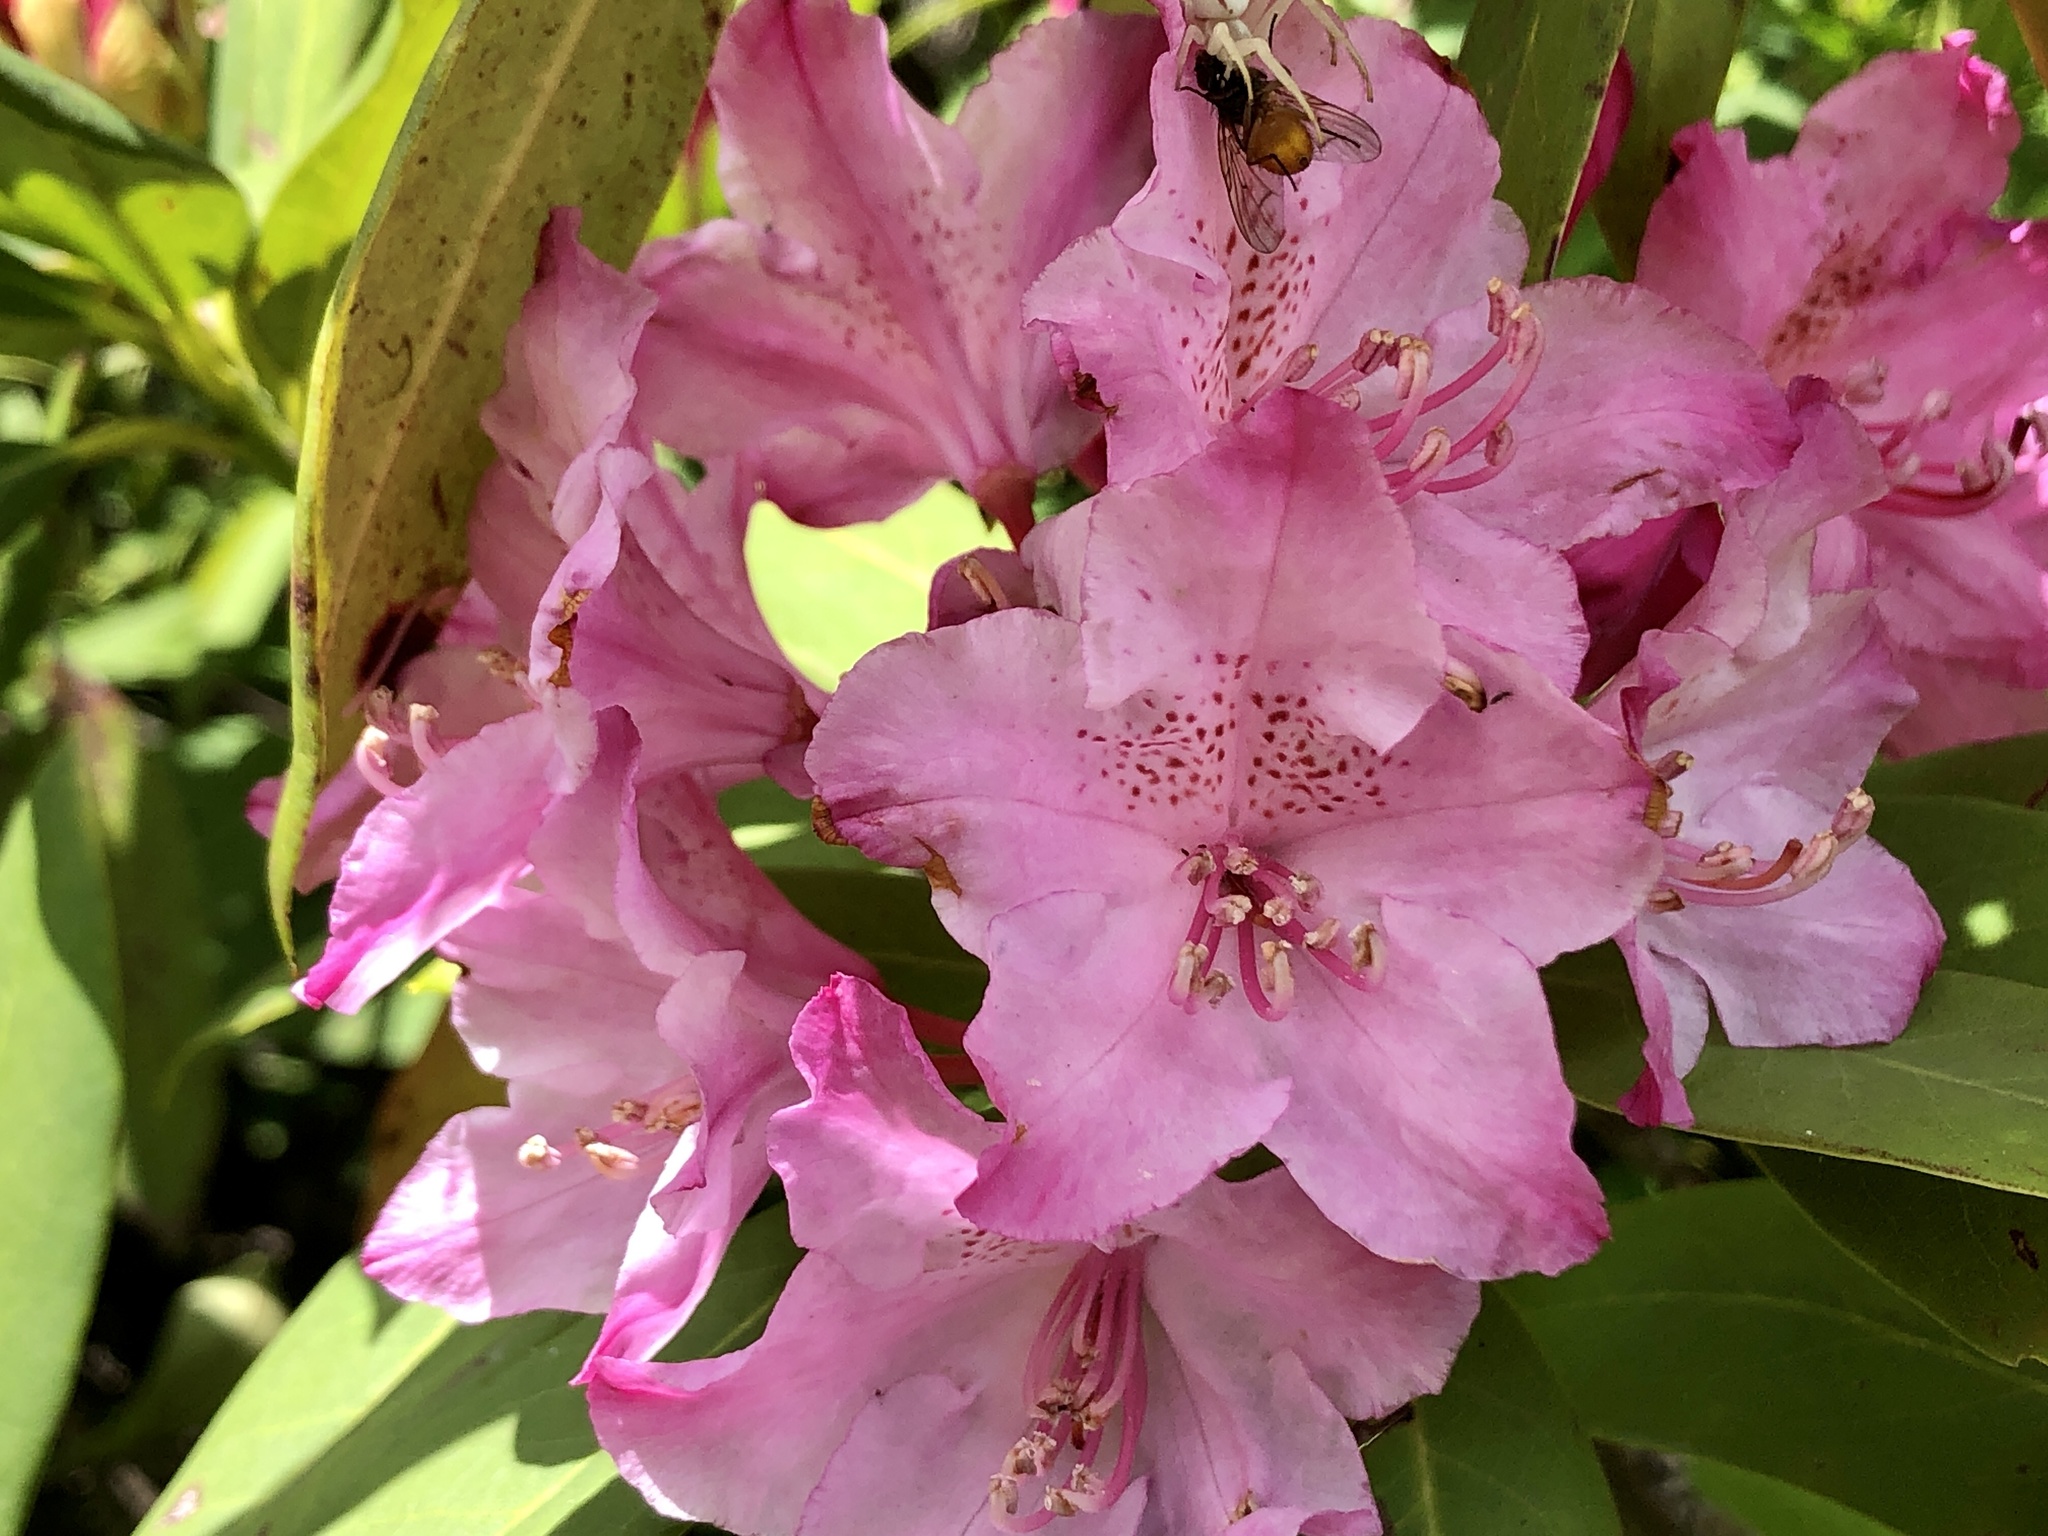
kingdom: Plantae
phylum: Tracheophyta
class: Magnoliopsida
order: Ericales
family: Ericaceae
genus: Rhododendron
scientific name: Rhododendron macrophyllum
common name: California rose bay
